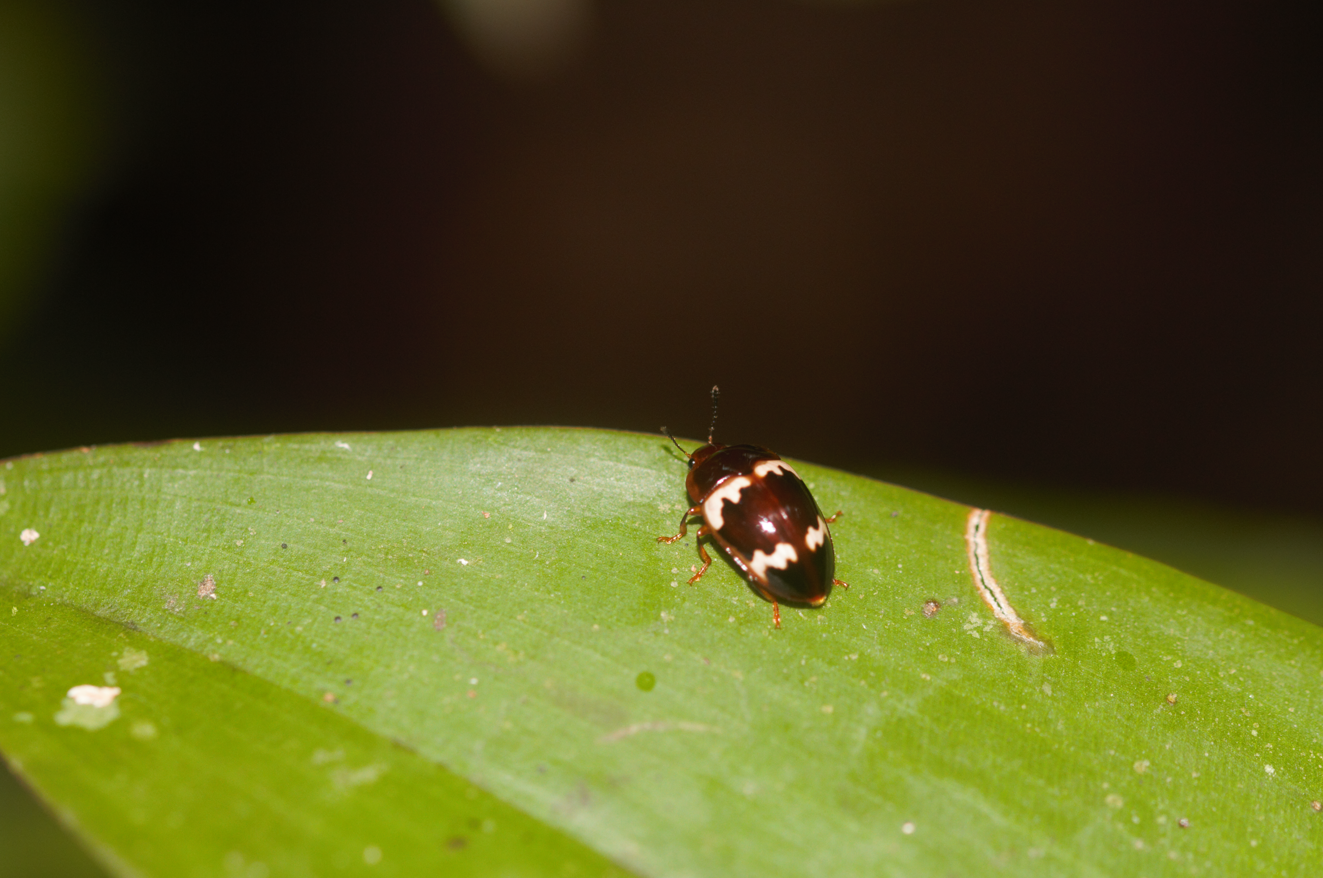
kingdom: Animalia
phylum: Arthropoda
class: Insecta
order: Coleoptera
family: Erotylidae
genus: Iphiclus
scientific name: Iphiclus nitidulus
